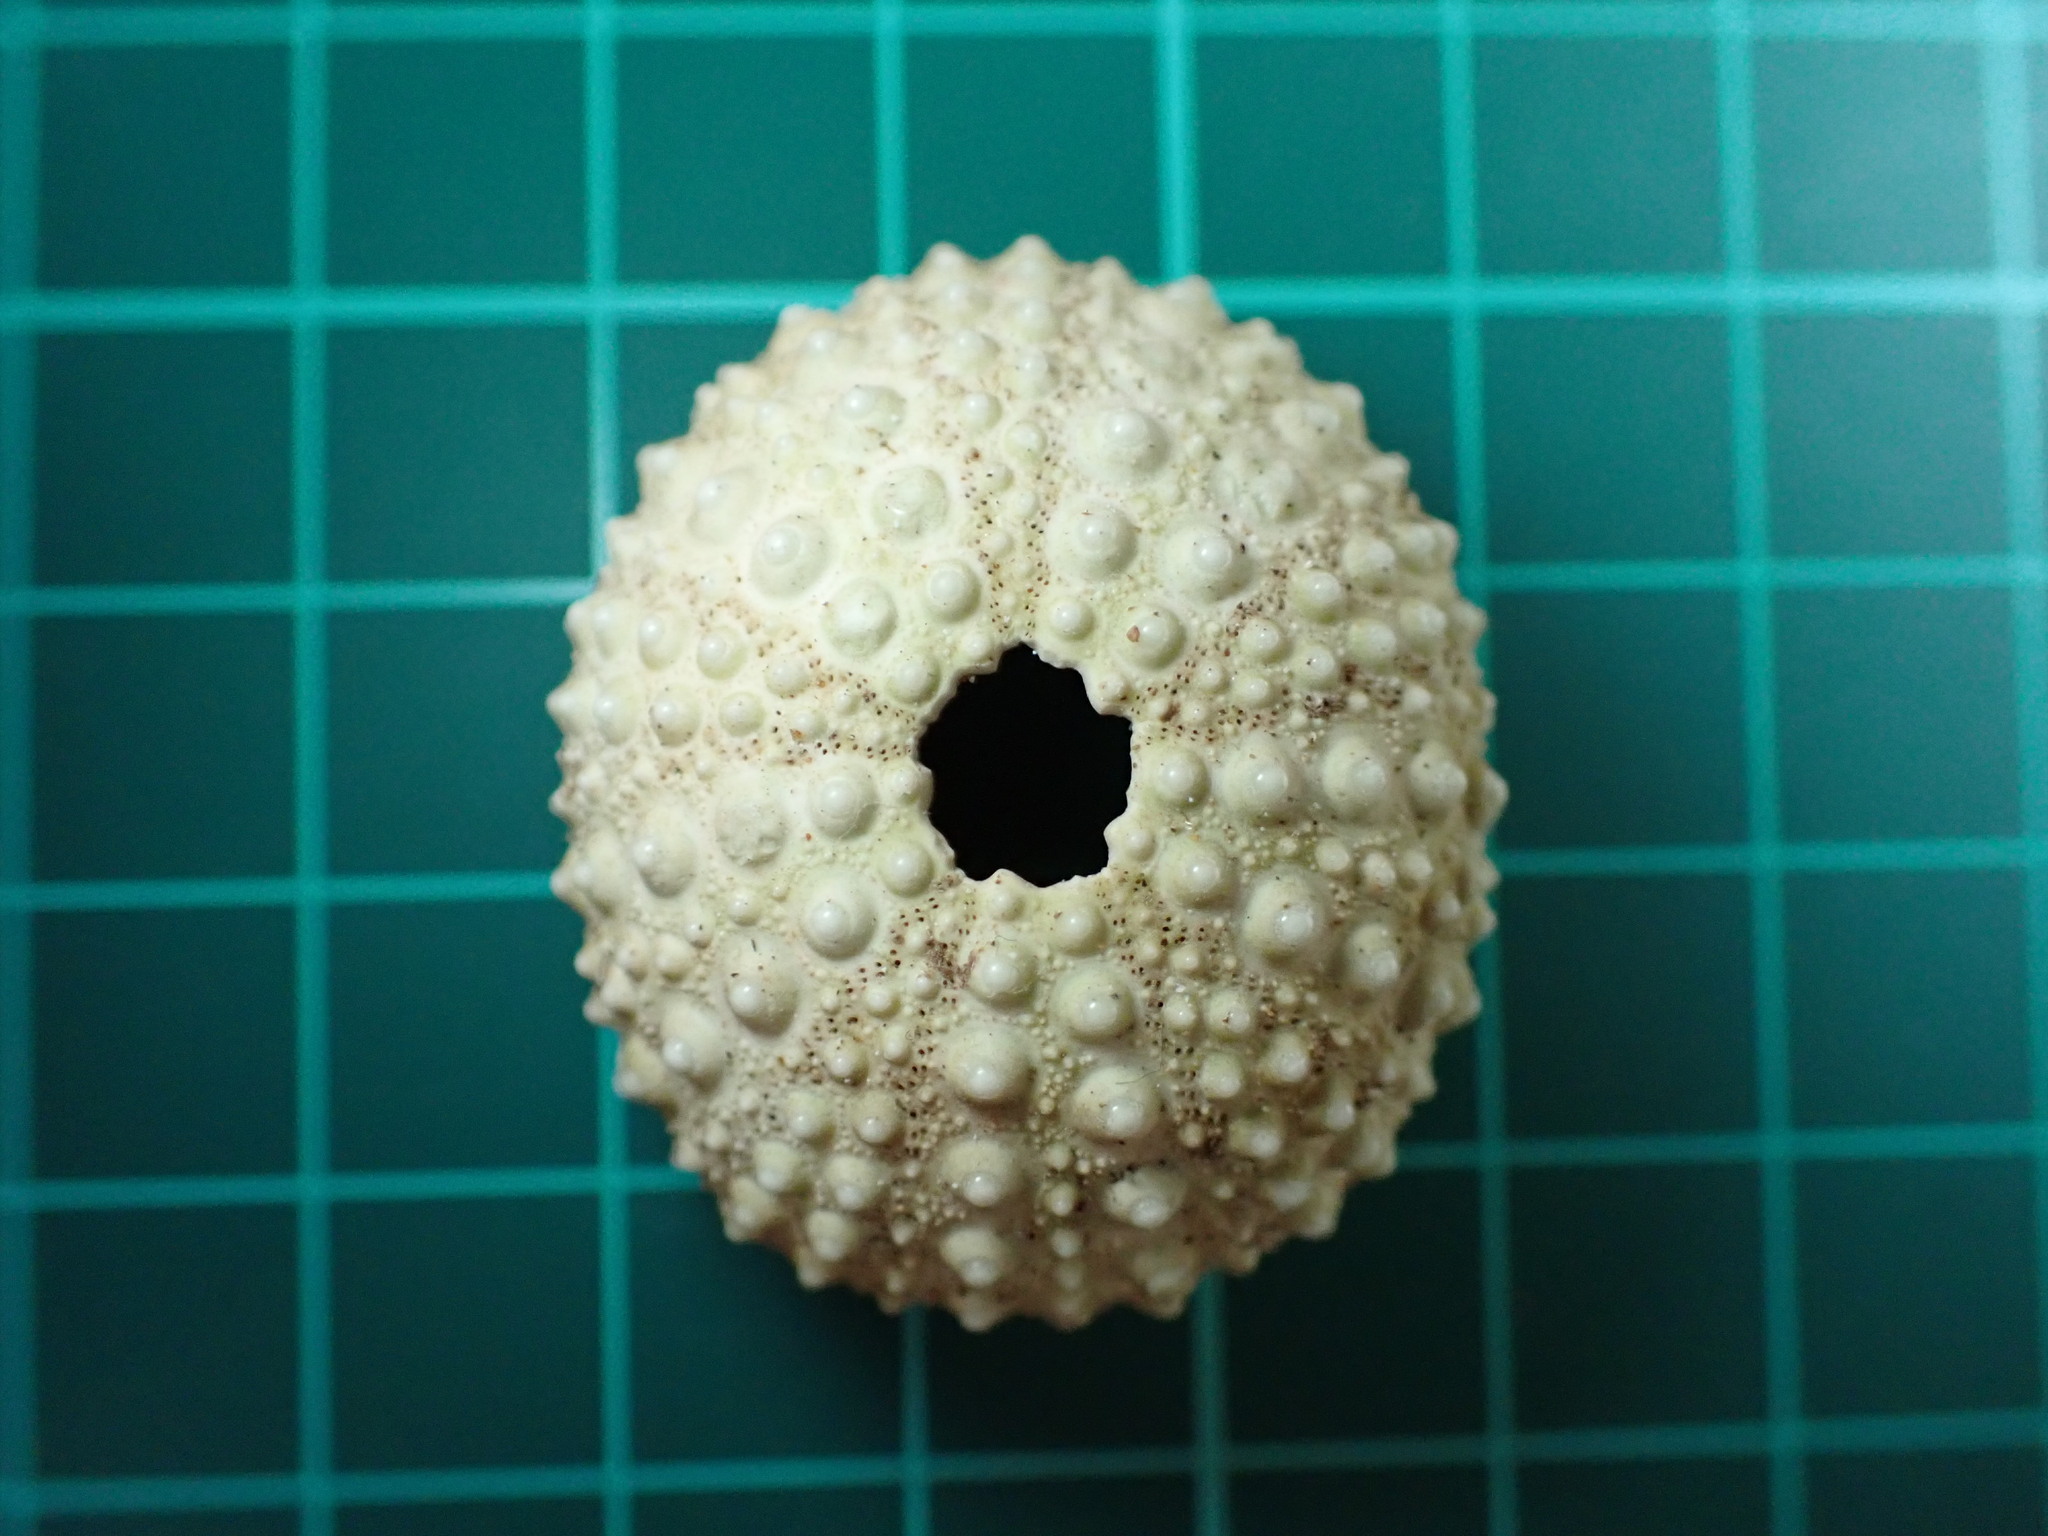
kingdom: Animalia
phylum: Echinodermata
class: Echinoidea
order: Camarodonta
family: Echinometridae
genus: Echinometra
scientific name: Echinometra mathaei
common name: Rock-boring urchin
